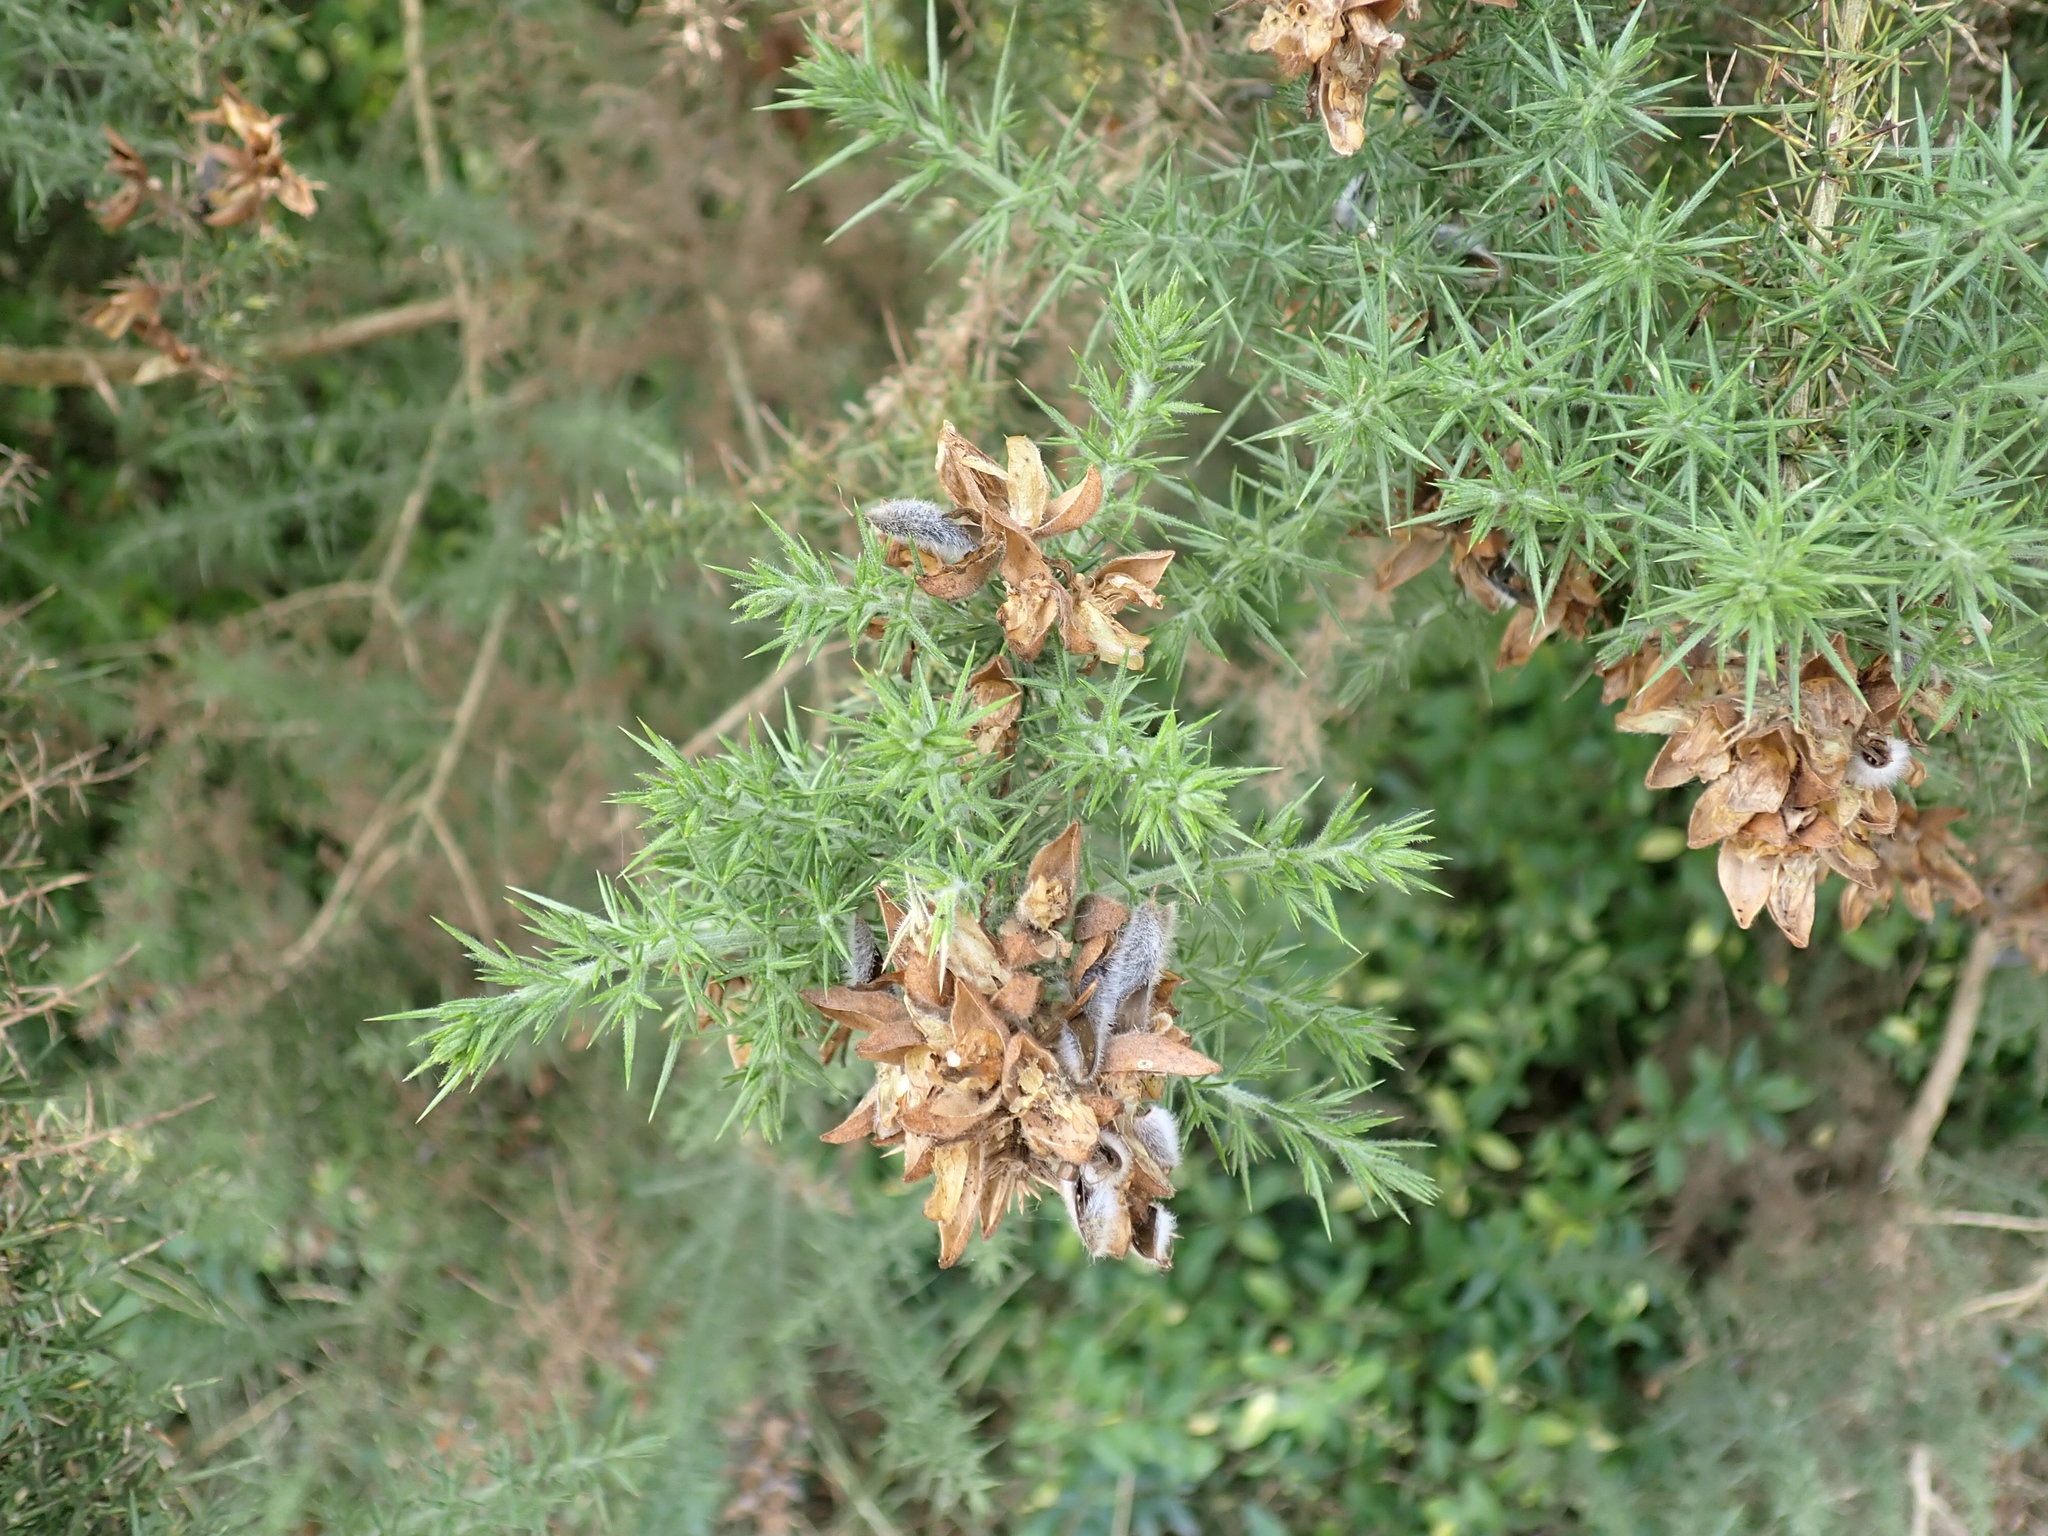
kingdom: Plantae
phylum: Tracheophyta
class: Magnoliopsida
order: Fabales
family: Fabaceae
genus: Ulex
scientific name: Ulex europaeus
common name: Common gorse
